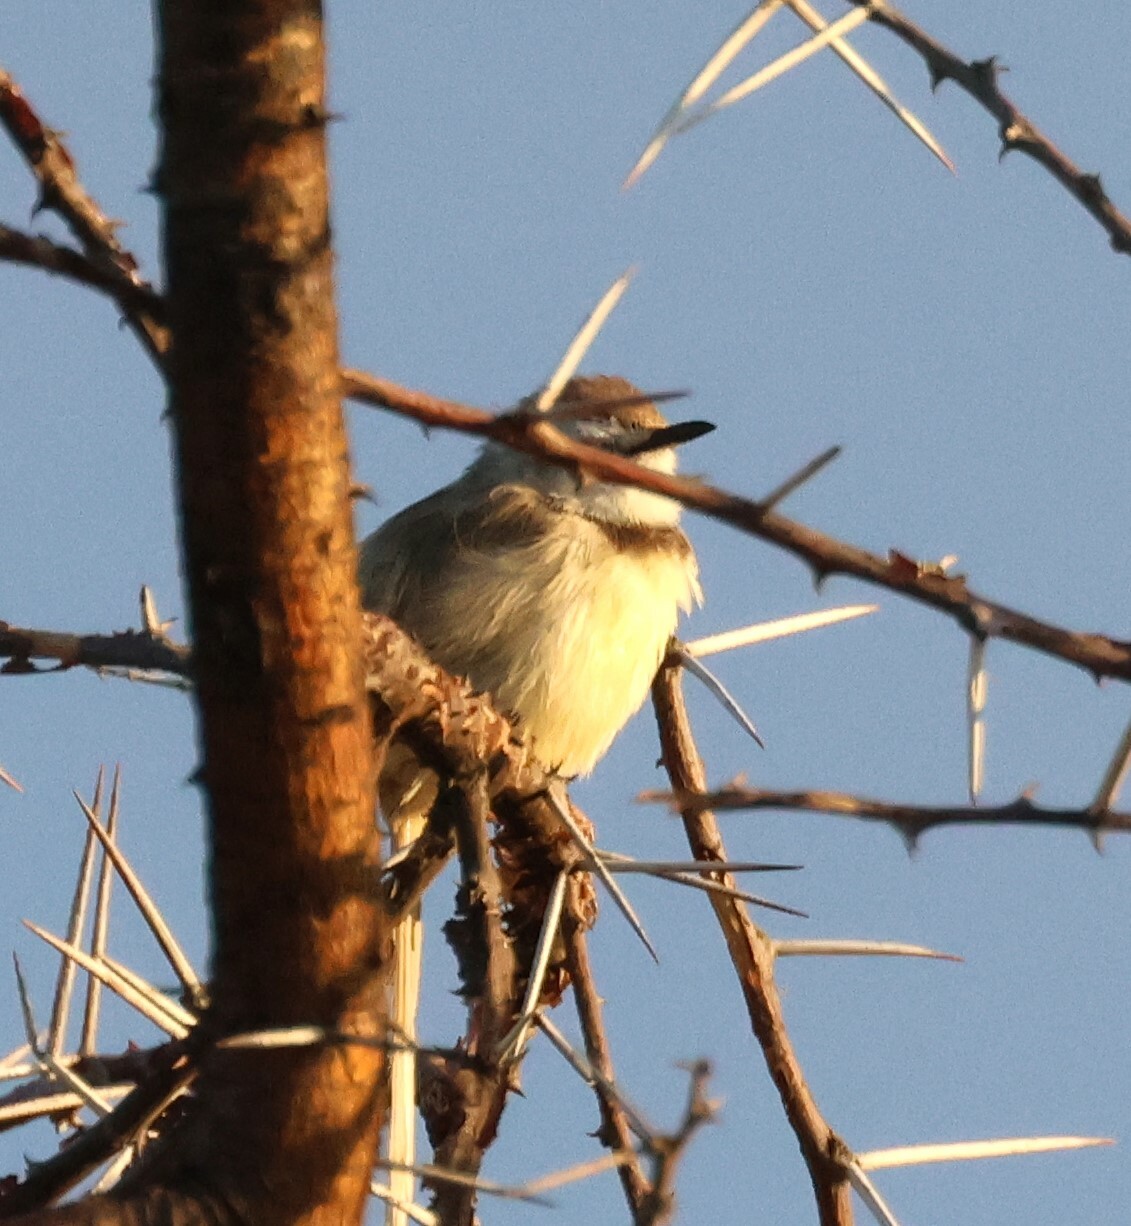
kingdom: Animalia
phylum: Chordata
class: Aves
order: Passeriformes
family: Cisticolidae
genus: Prinia
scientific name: Prinia flavicans
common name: Black-chested prinia
